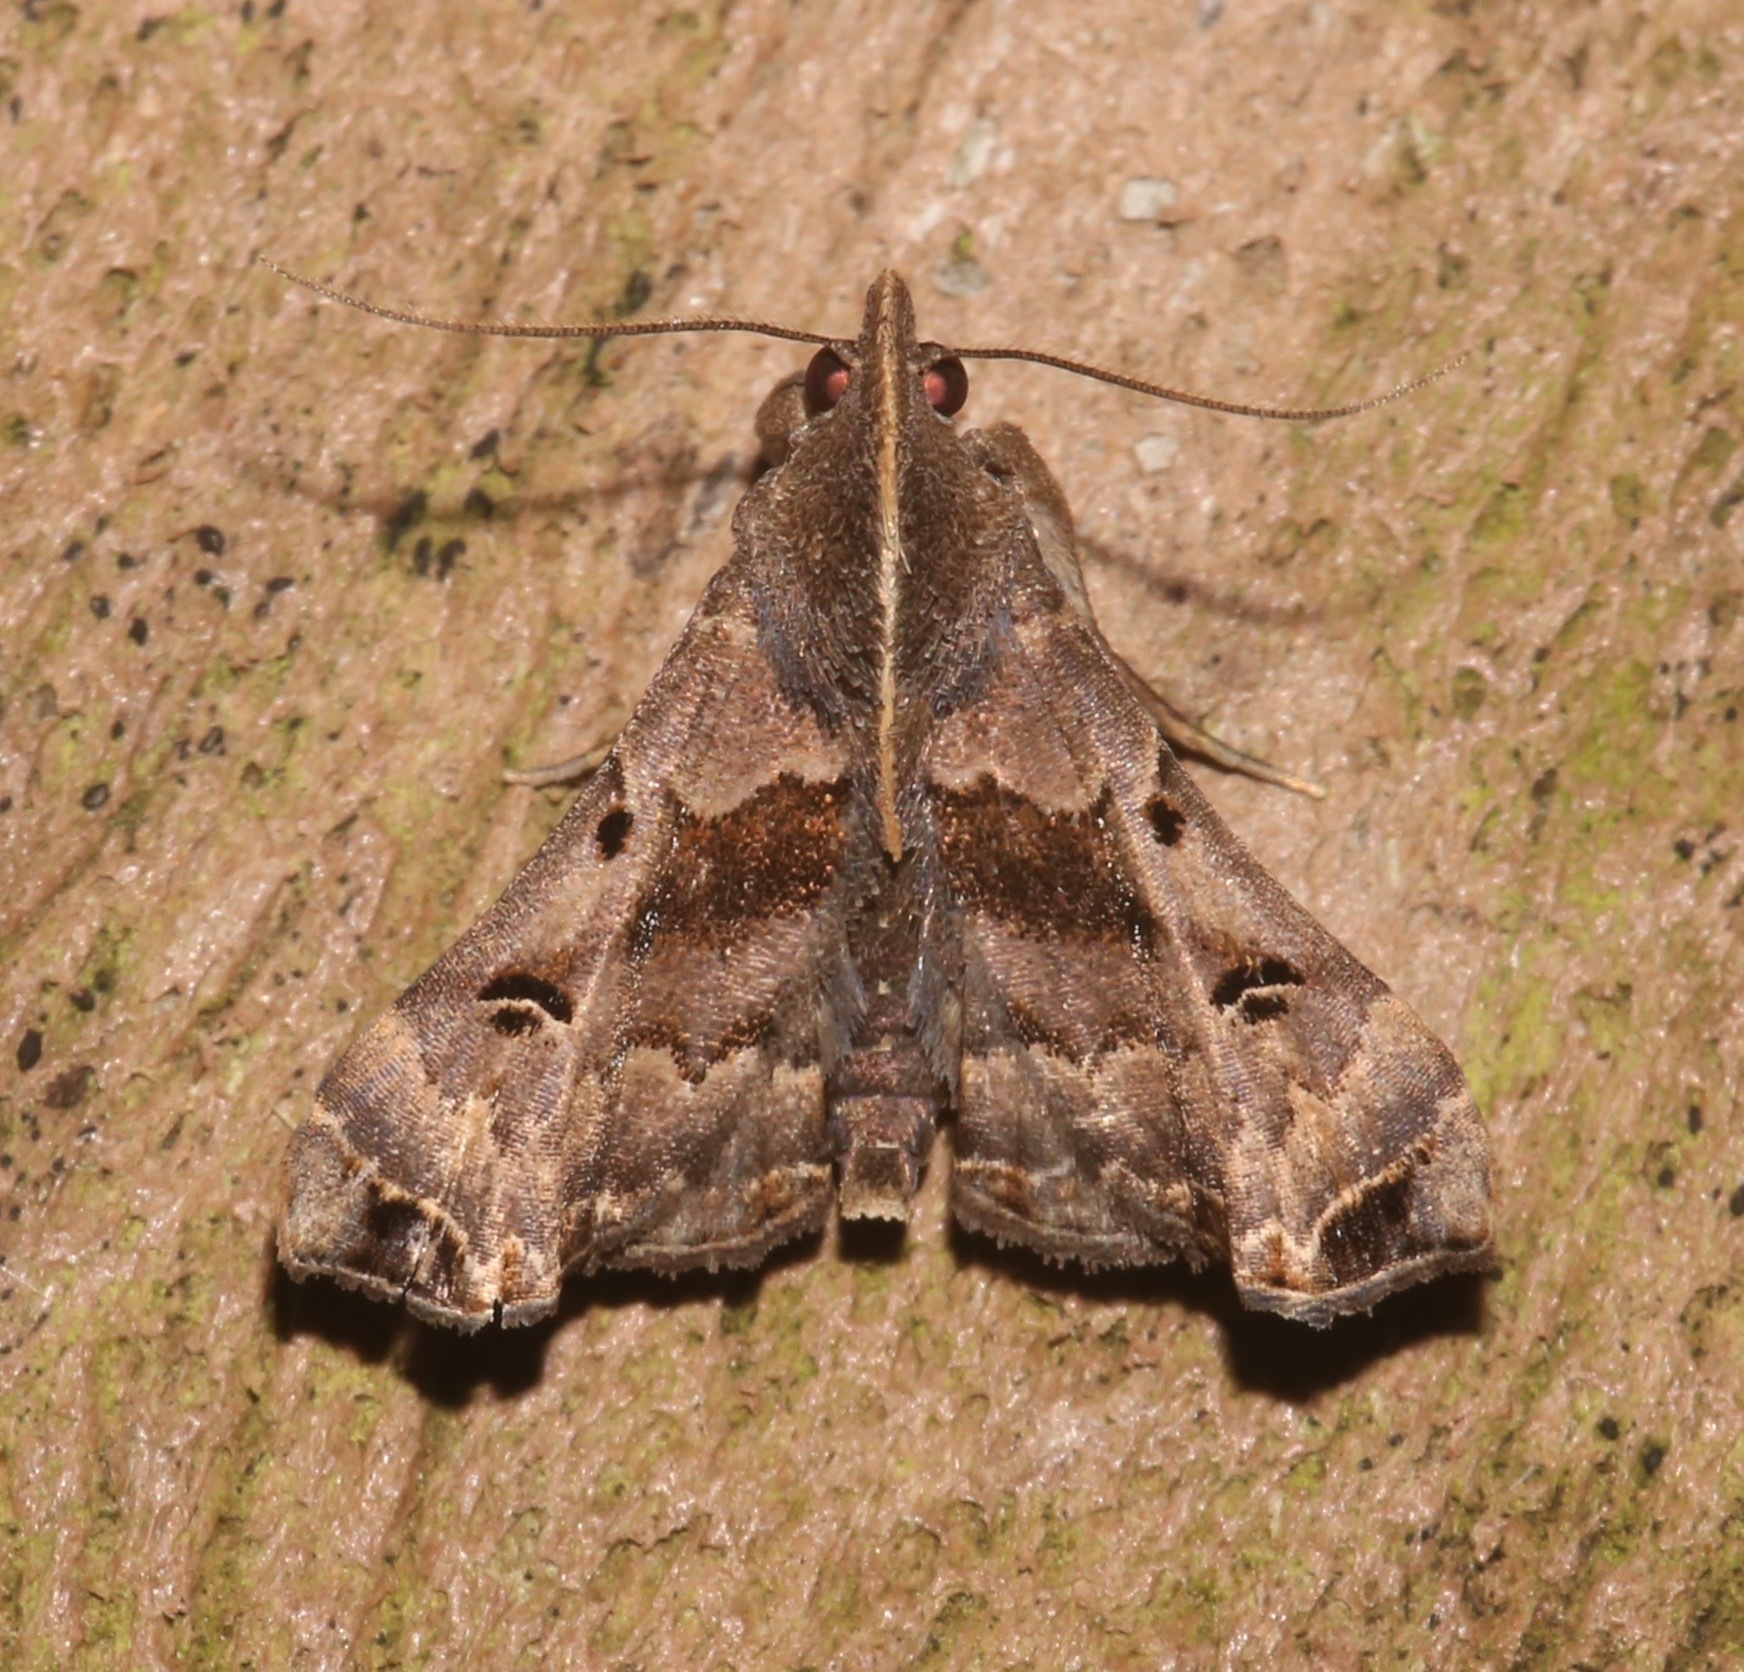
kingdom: Animalia
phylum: Arthropoda
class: Insecta
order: Lepidoptera
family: Erebidae
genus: Palthis
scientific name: Palthis asopialis
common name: Faint-spotted palthis moth
